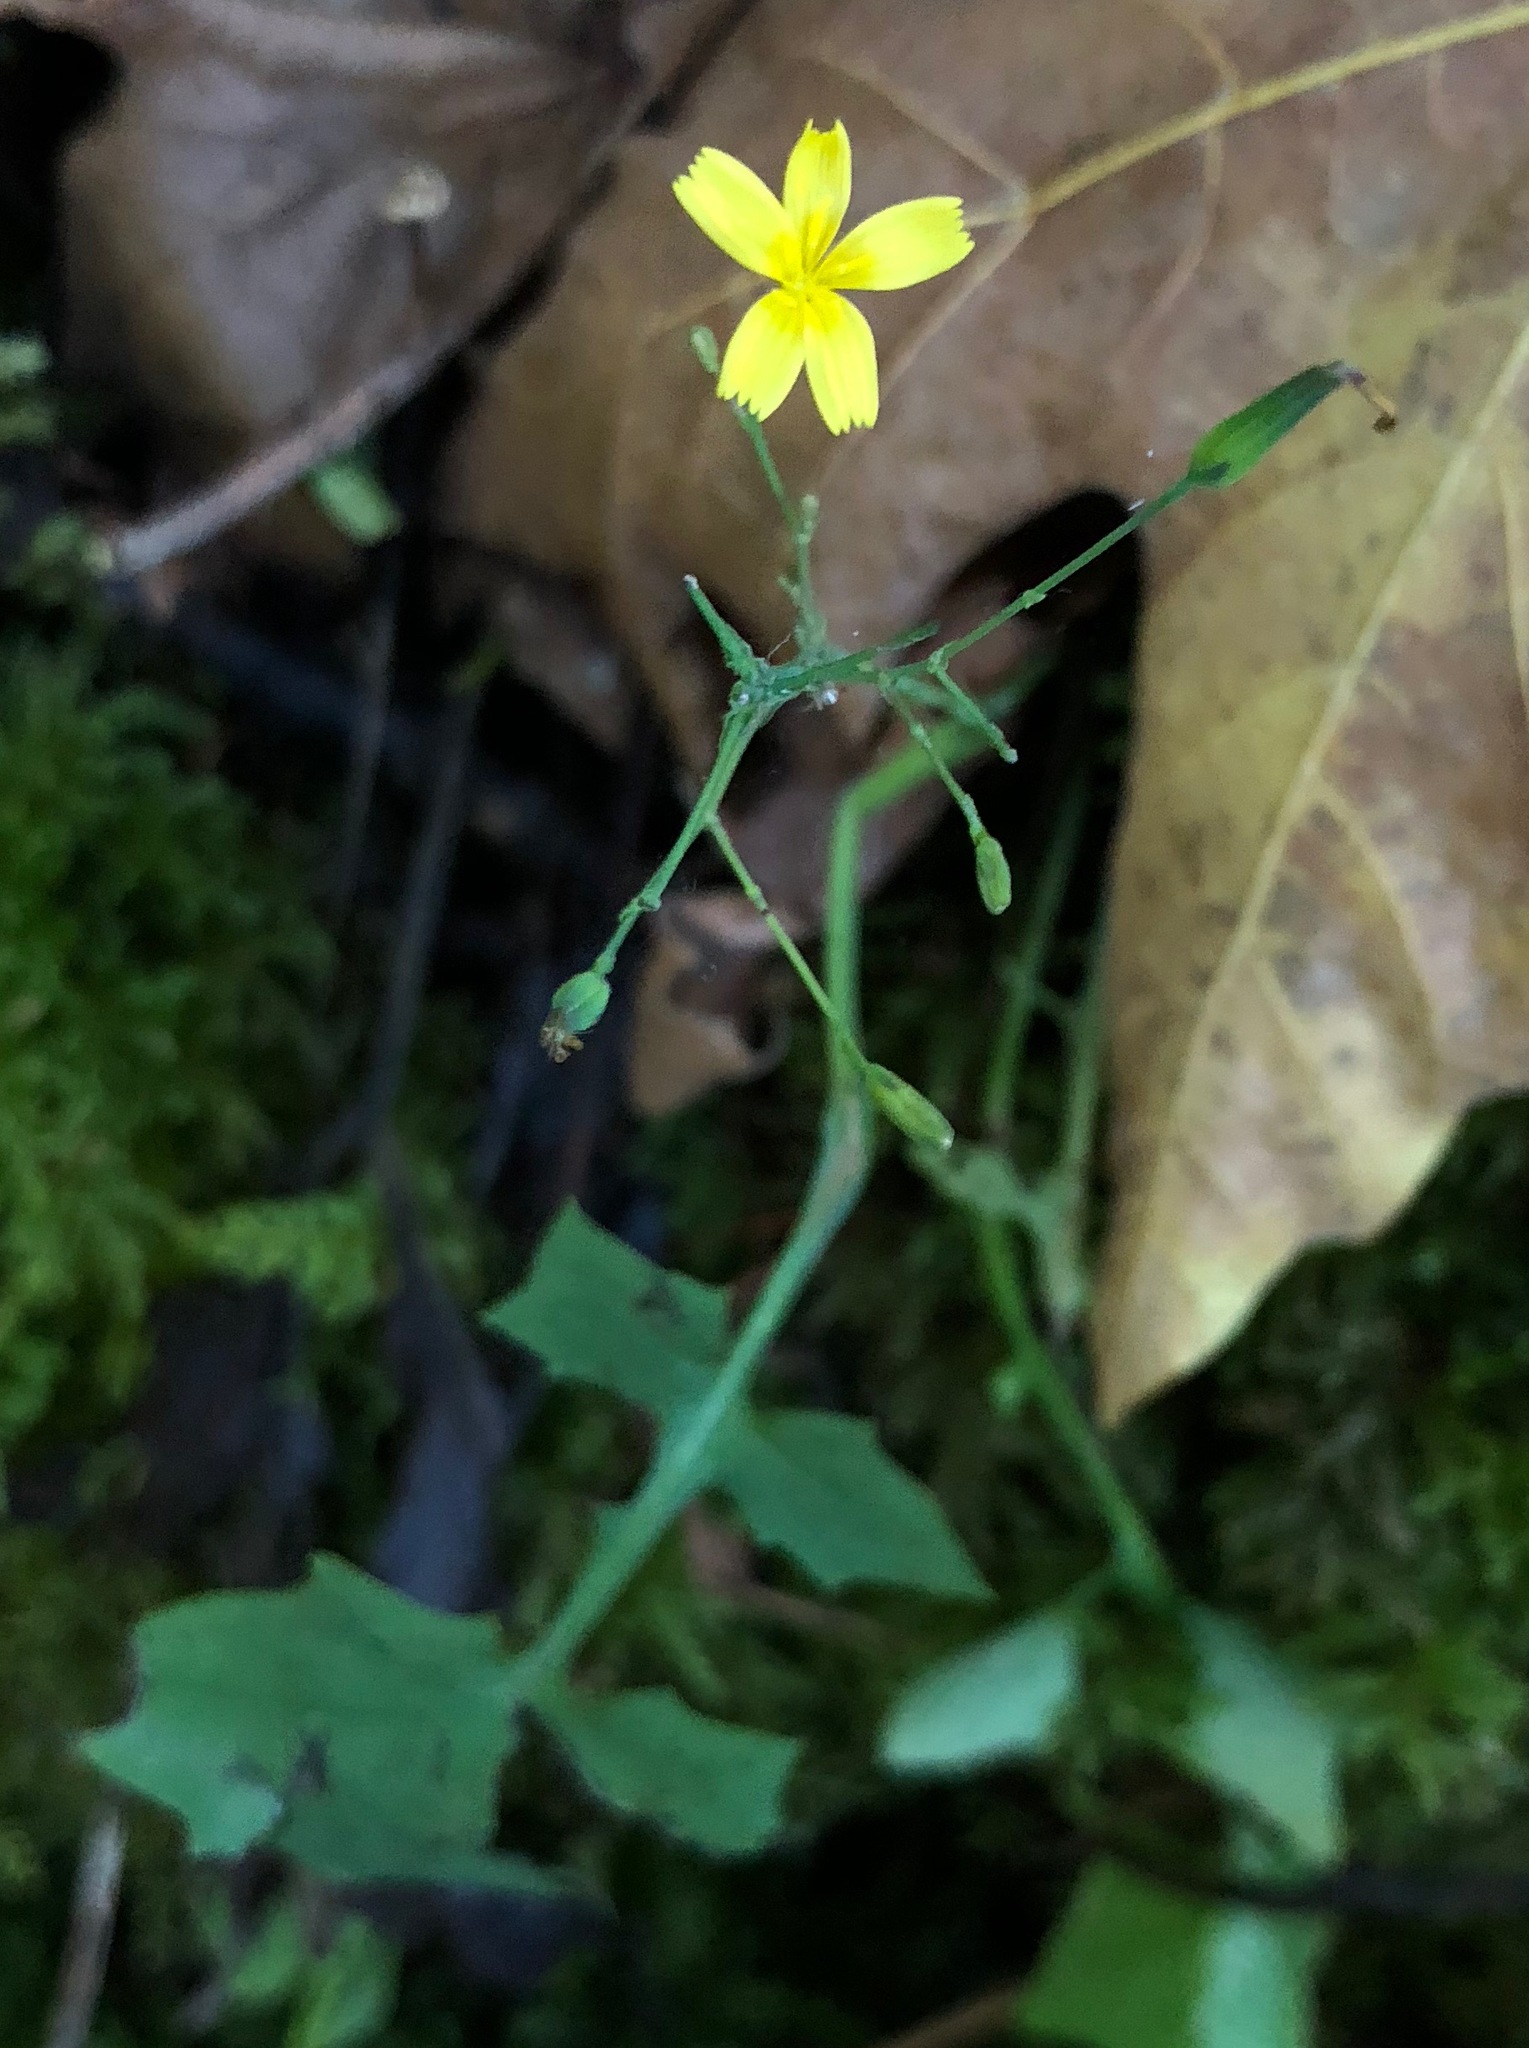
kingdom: Plantae
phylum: Tracheophyta
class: Magnoliopsida
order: Asterales
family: Asteraceae
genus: Mycelis
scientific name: Mycelis muralis
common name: Wall lettuce
